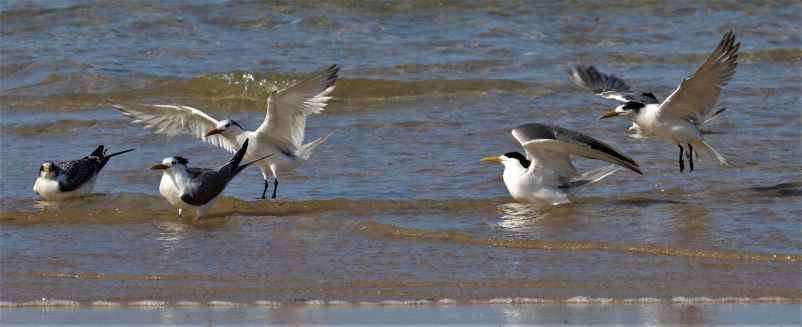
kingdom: Animalia
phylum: Chordata
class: Aves
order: Charadriiformes
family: Laridae
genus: Thalasseus
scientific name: Thalasseus bergii
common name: Greater crested tern
